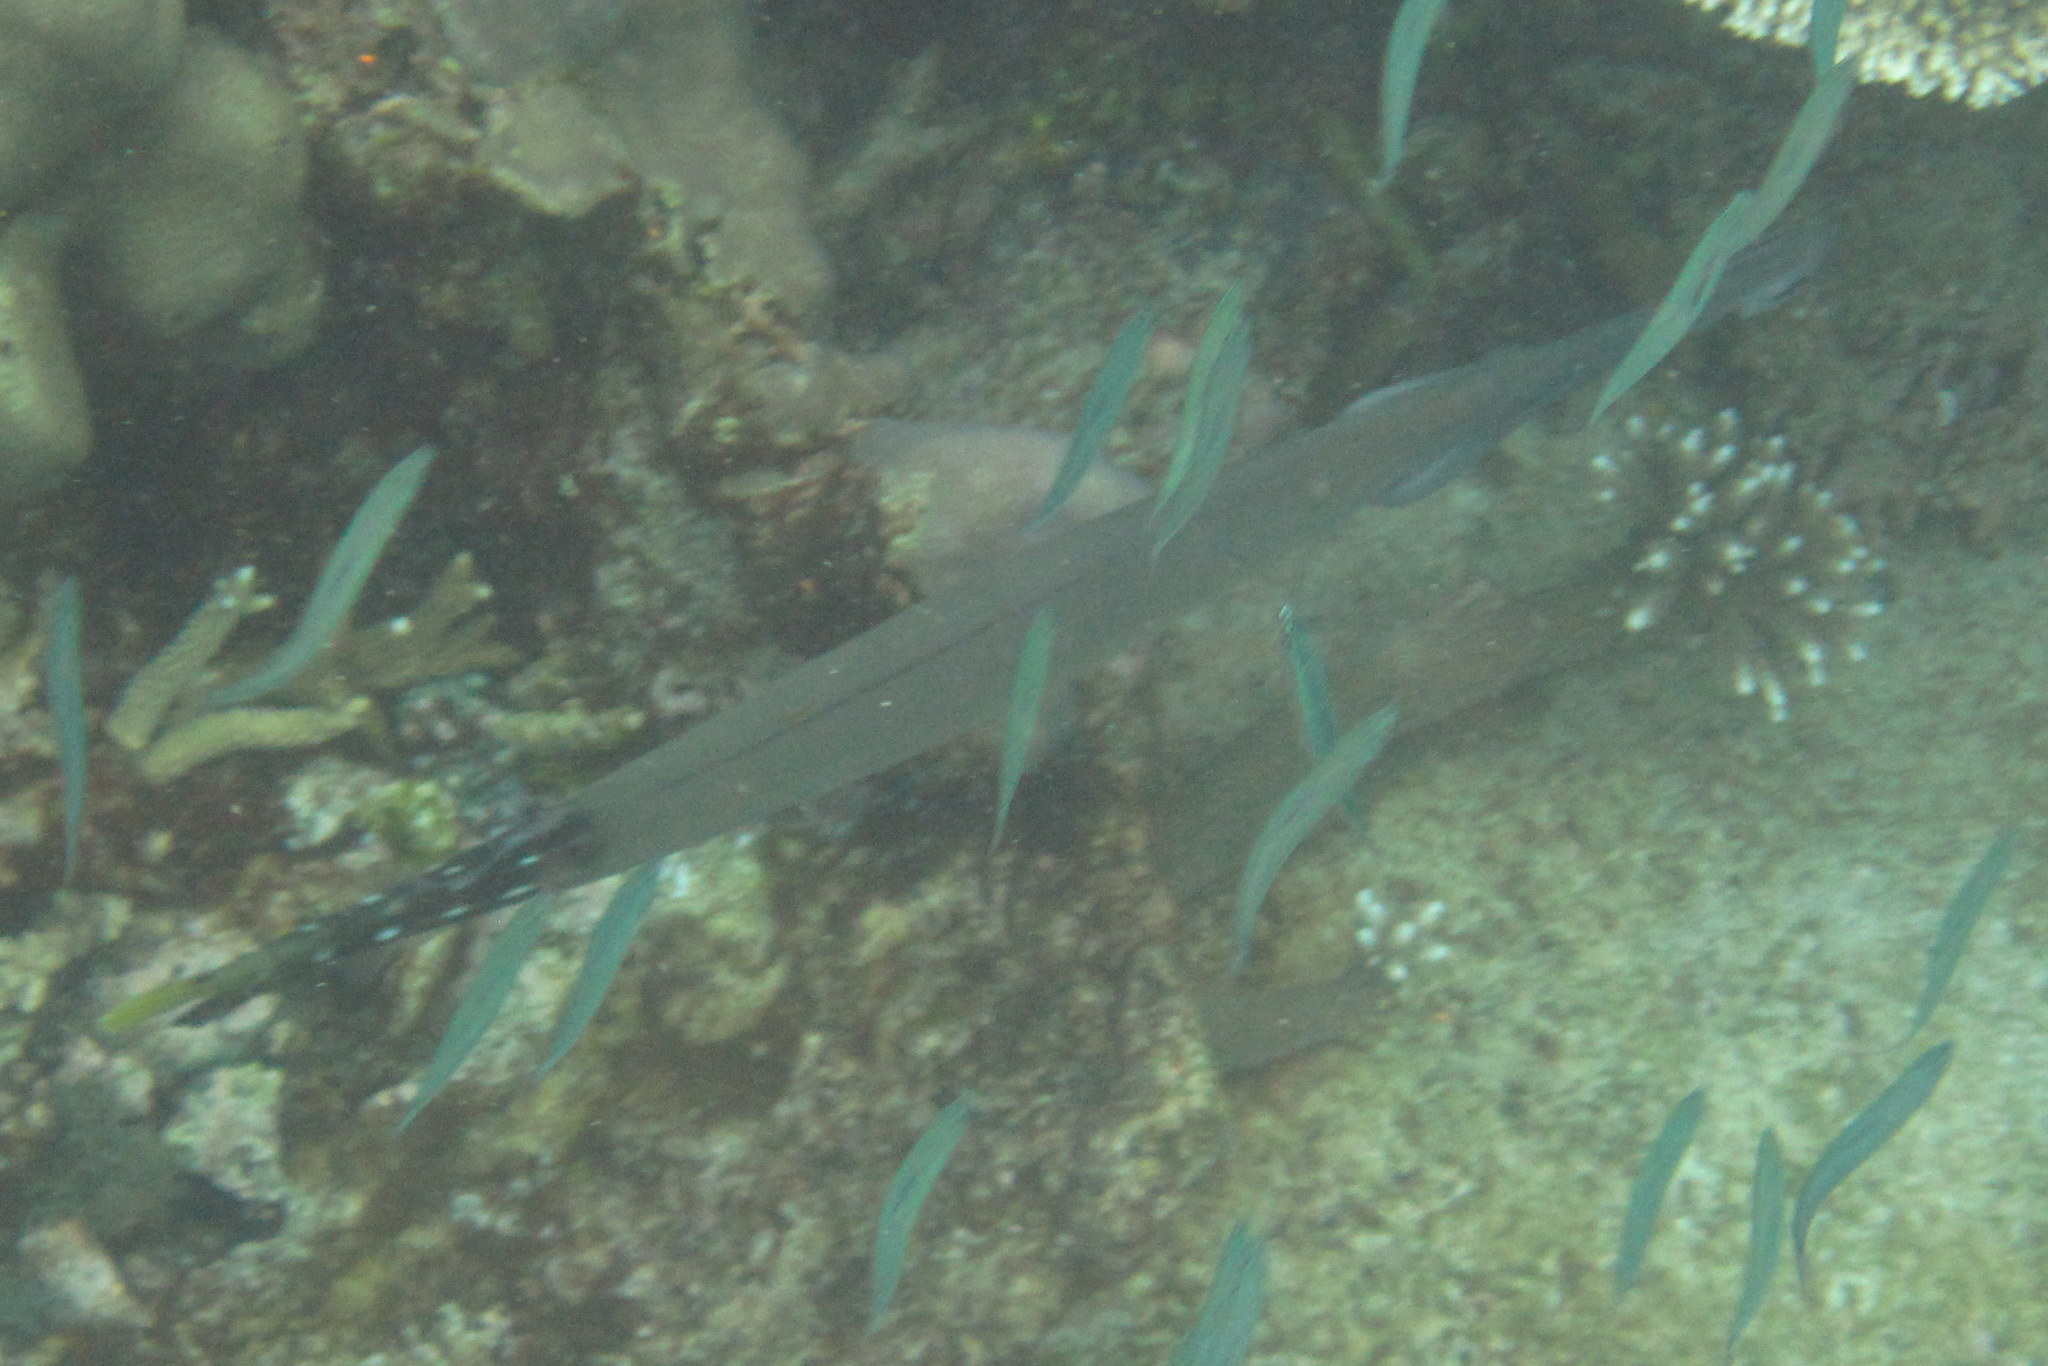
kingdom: Animalia
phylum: Chordata
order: Syngnathiformes
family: Aulostomidae
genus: Aulostomus
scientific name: Aulostomus chinensis
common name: Chinese trumpetfish
